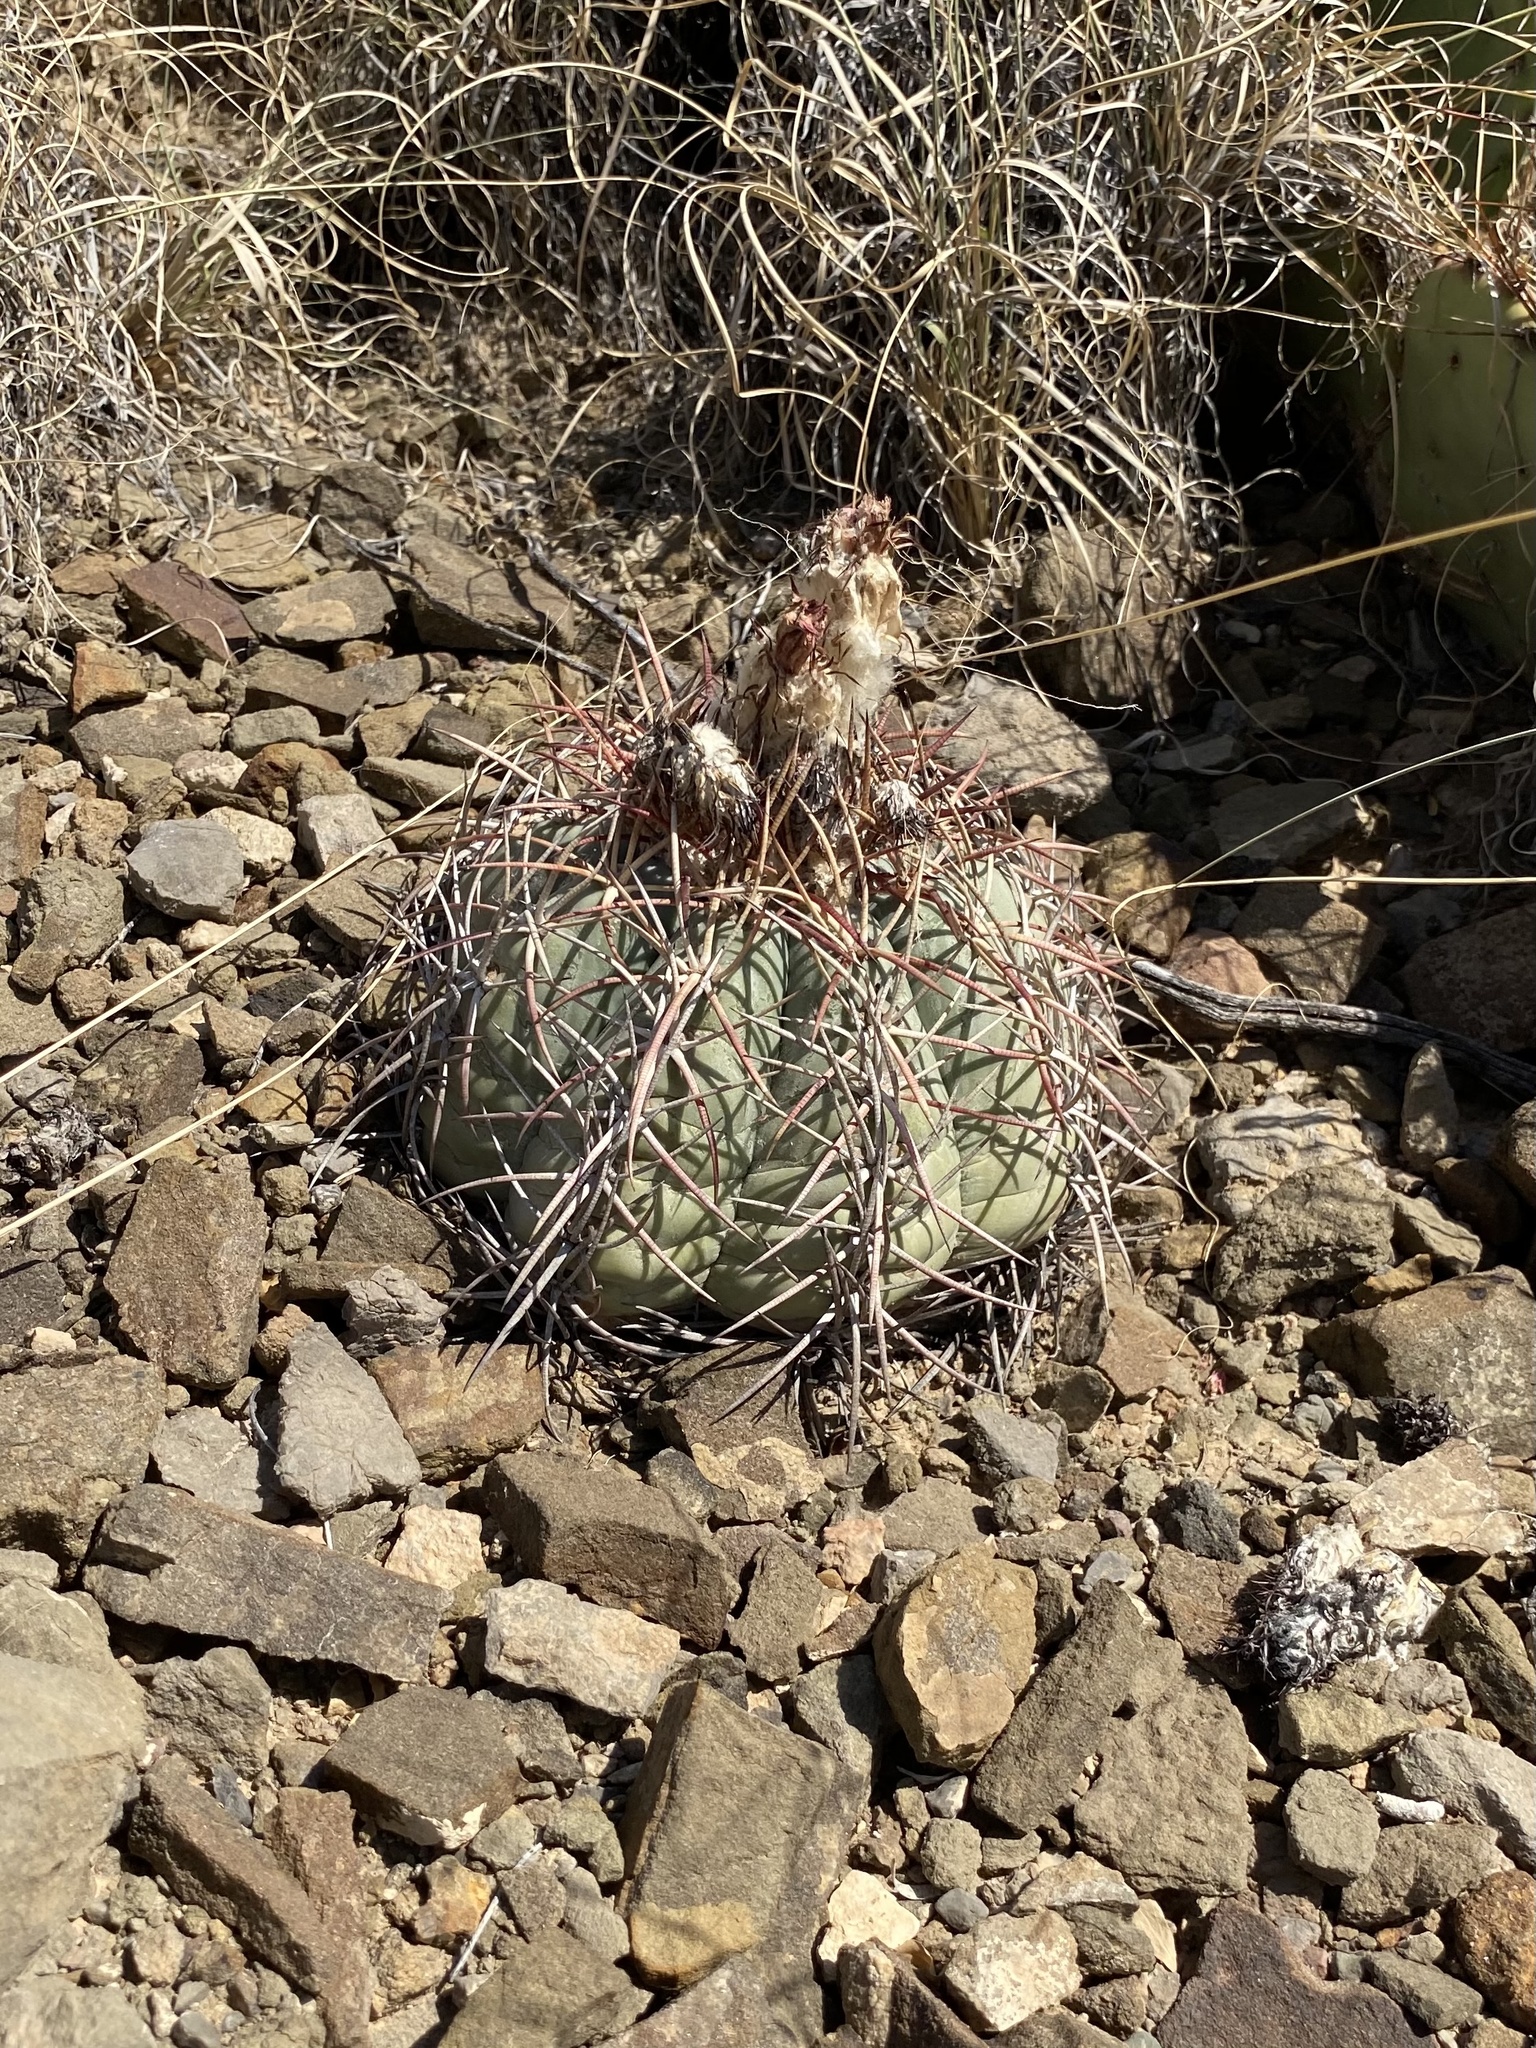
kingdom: Plantae
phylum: Tracheophyta
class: Magnoliopsida
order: Caryophyllales
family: Cactaceae
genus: Echinocactus
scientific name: Echinocactus horizonthalonius
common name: Devilshead
